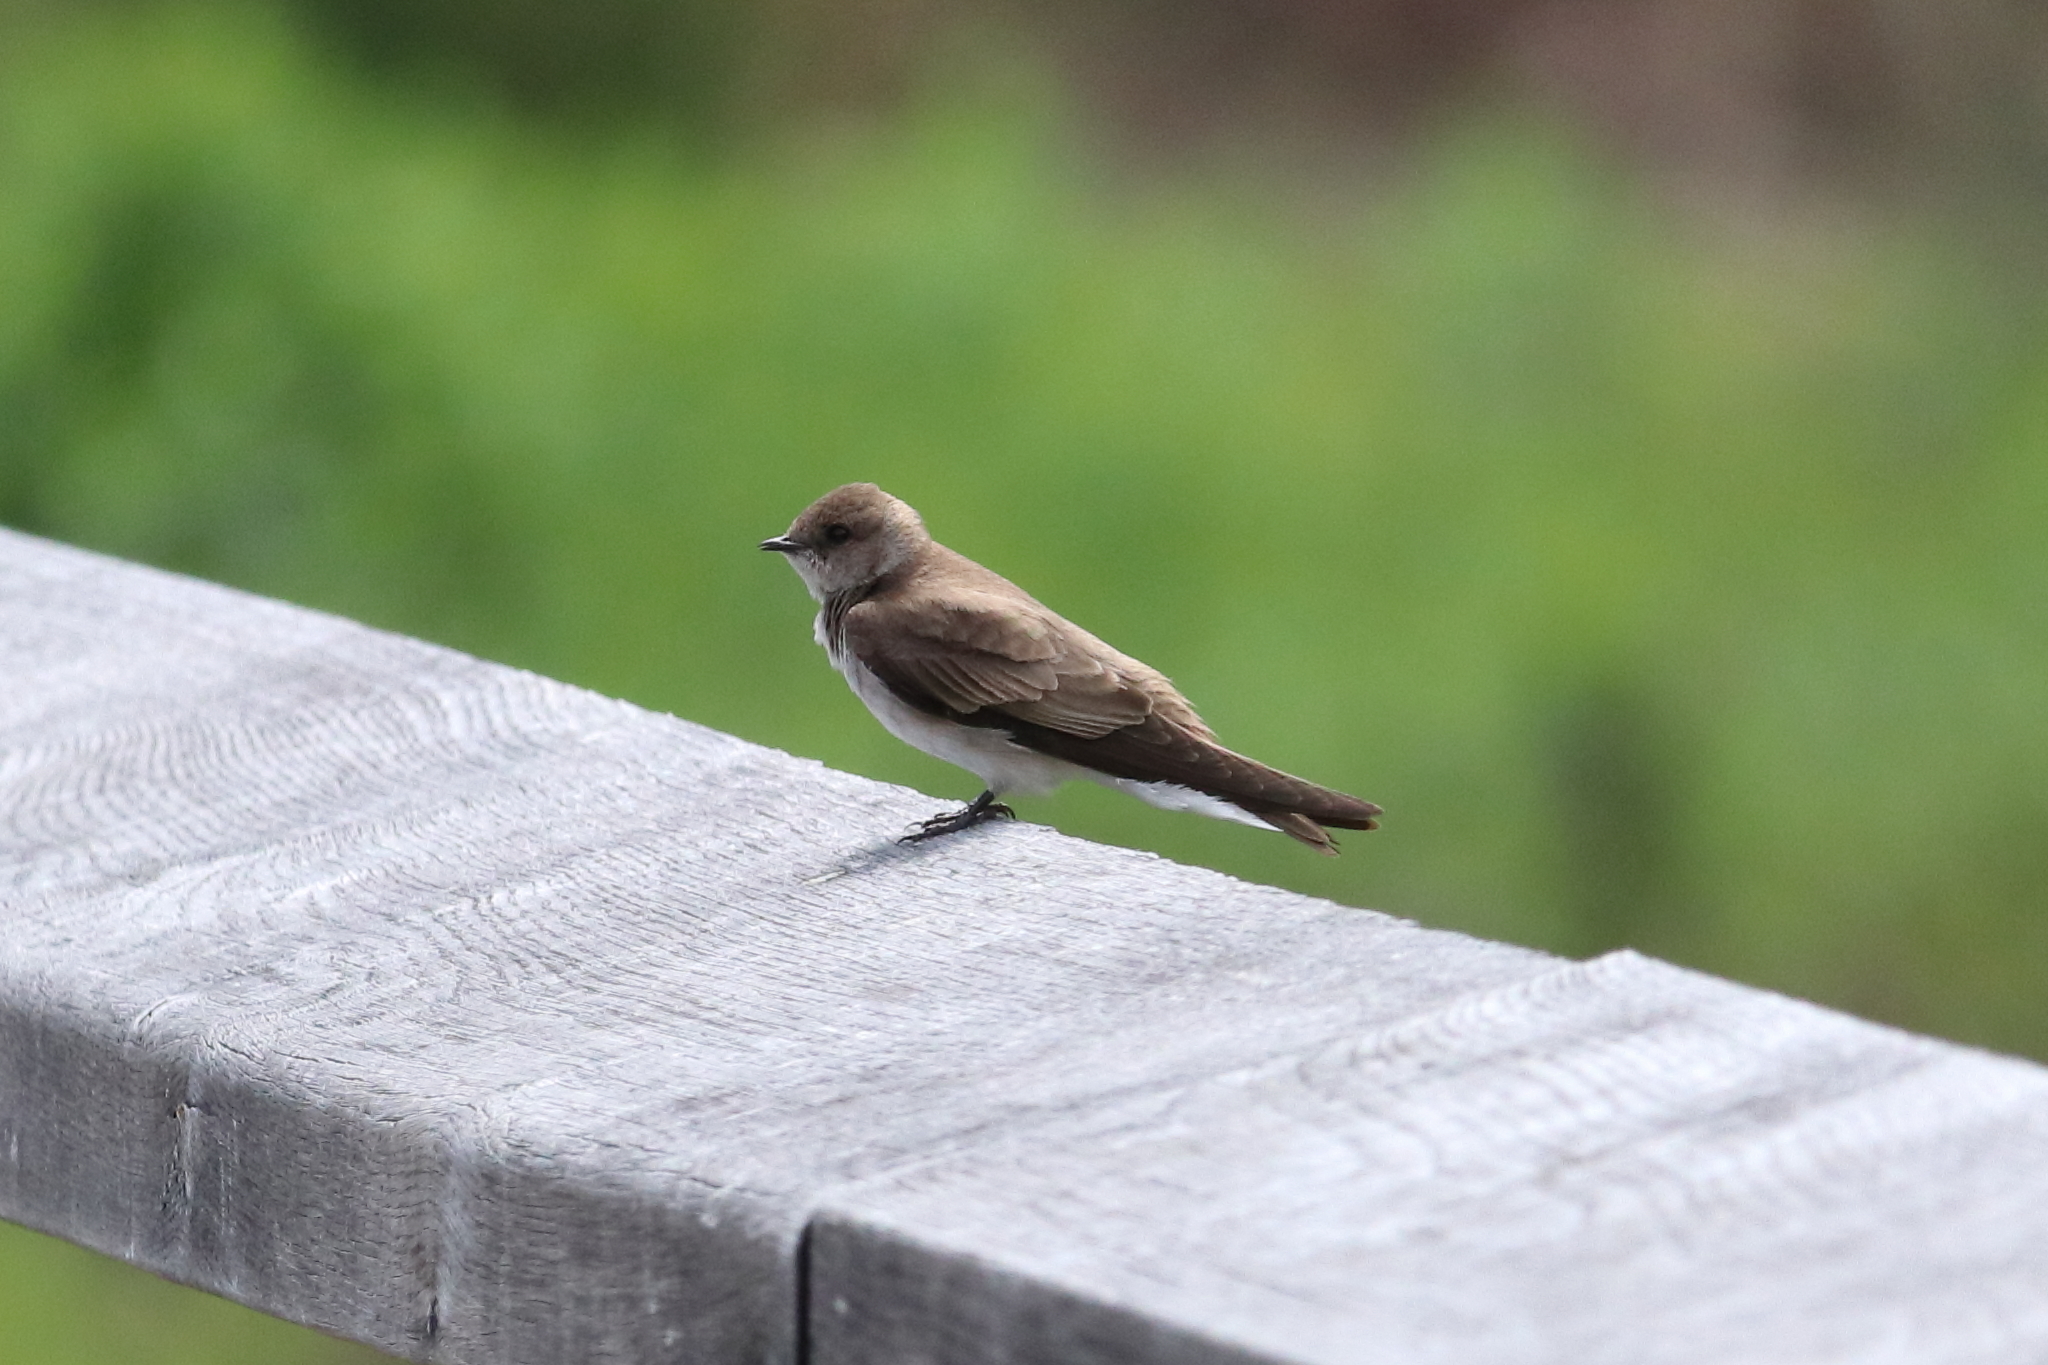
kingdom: Animalia
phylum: Chordata
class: Aves
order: Passeriformes
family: Hirundinidae
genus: Stelgidopteryx
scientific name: Stelgidopteryx serripennis
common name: Northern rough-winged swallow
